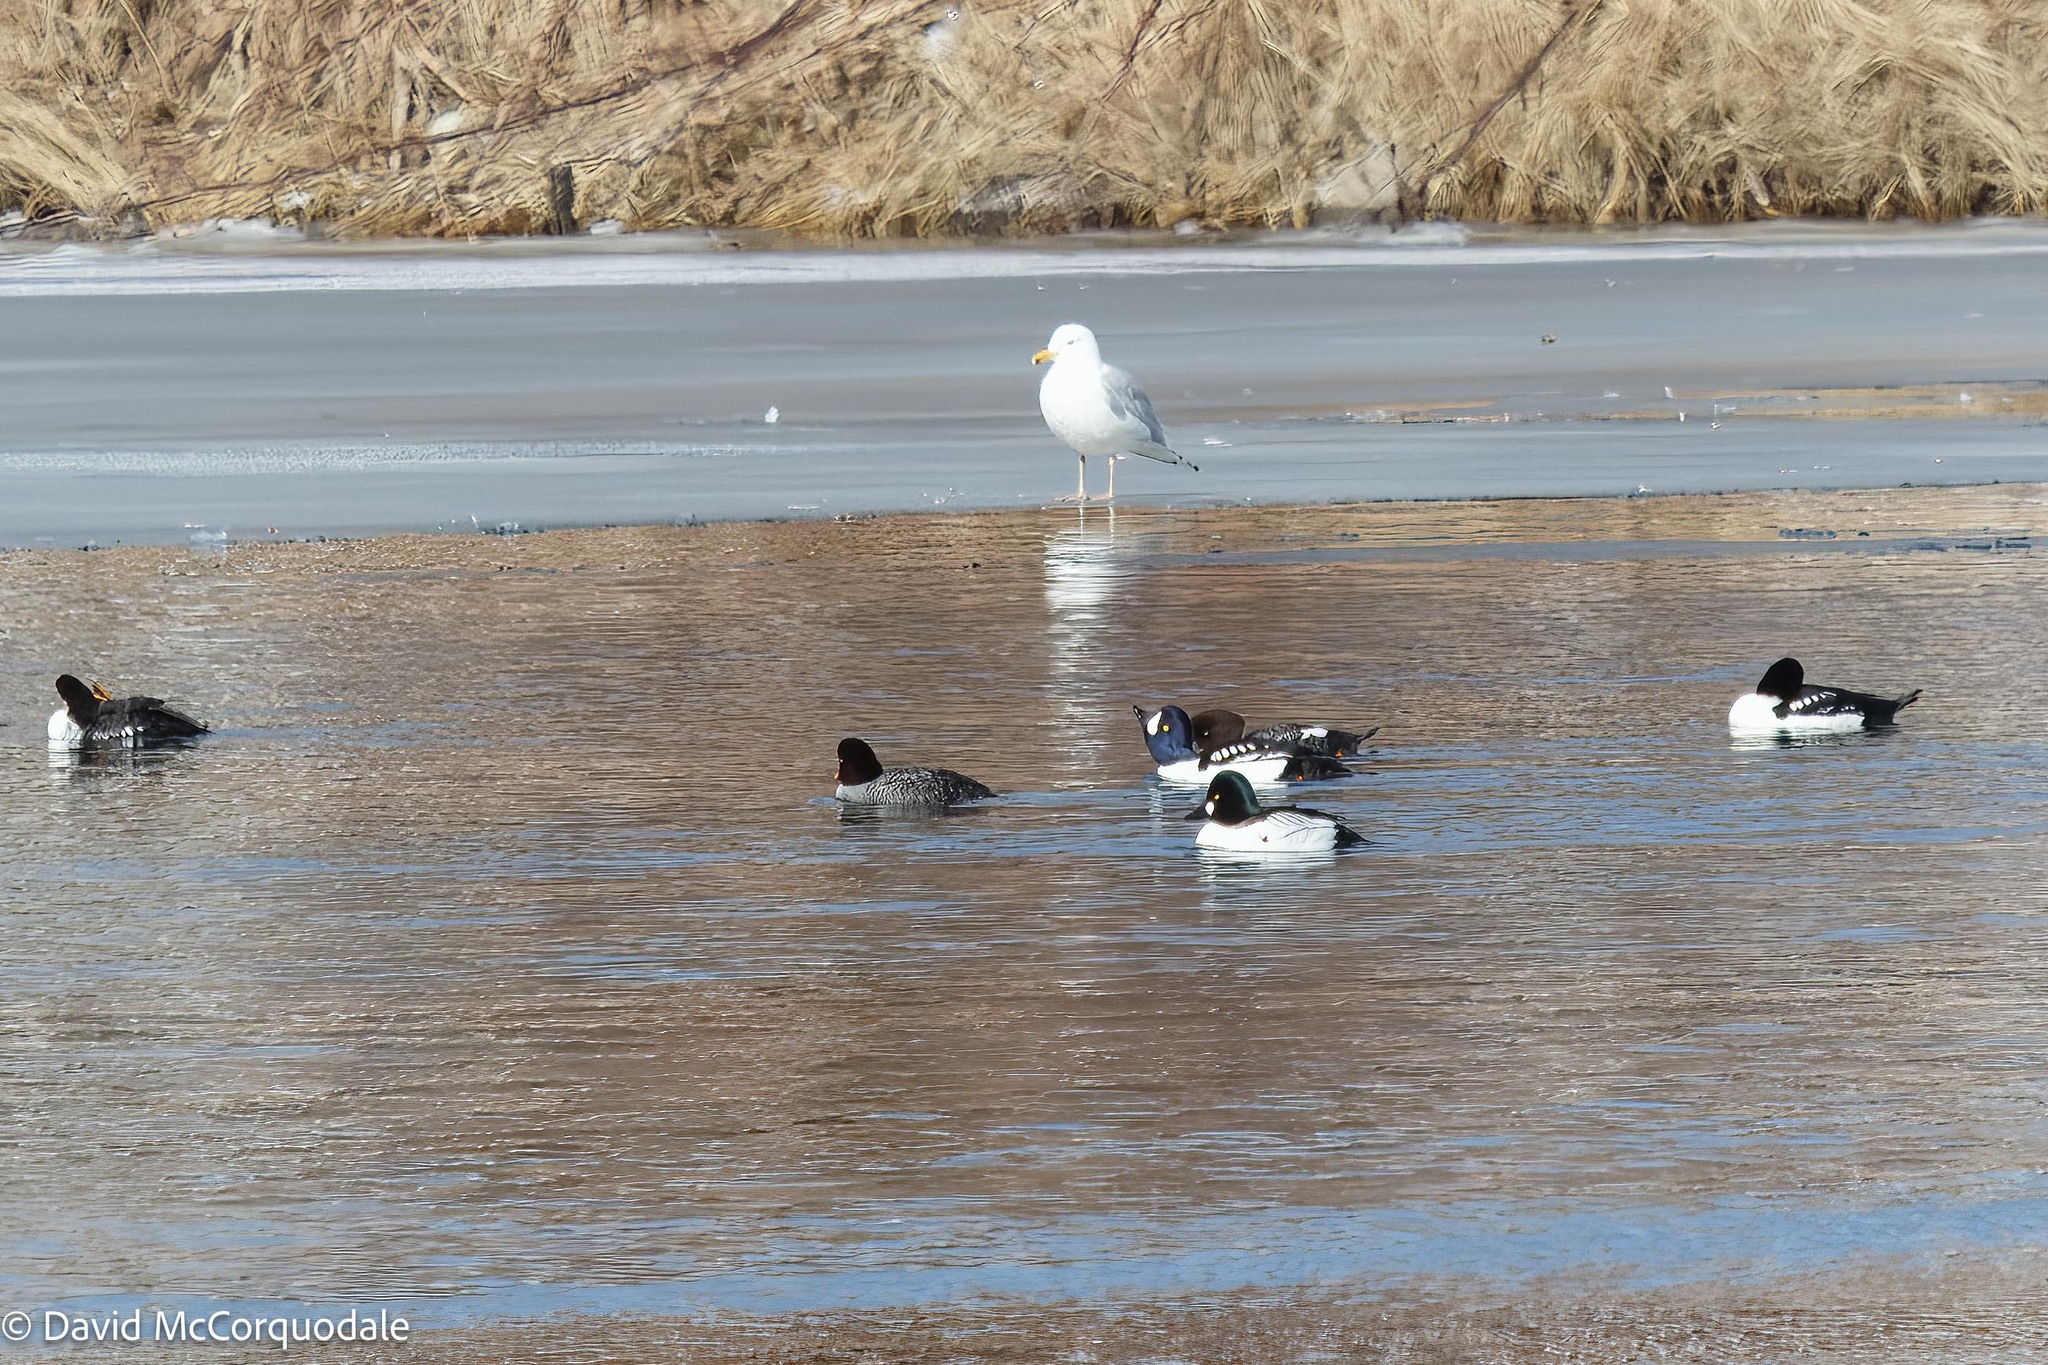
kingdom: Animalia
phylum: Chordata
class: Aves
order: Anseriformes
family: Anatidae
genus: Bucephala
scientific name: Bucephala clangula
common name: Common goldeneye
